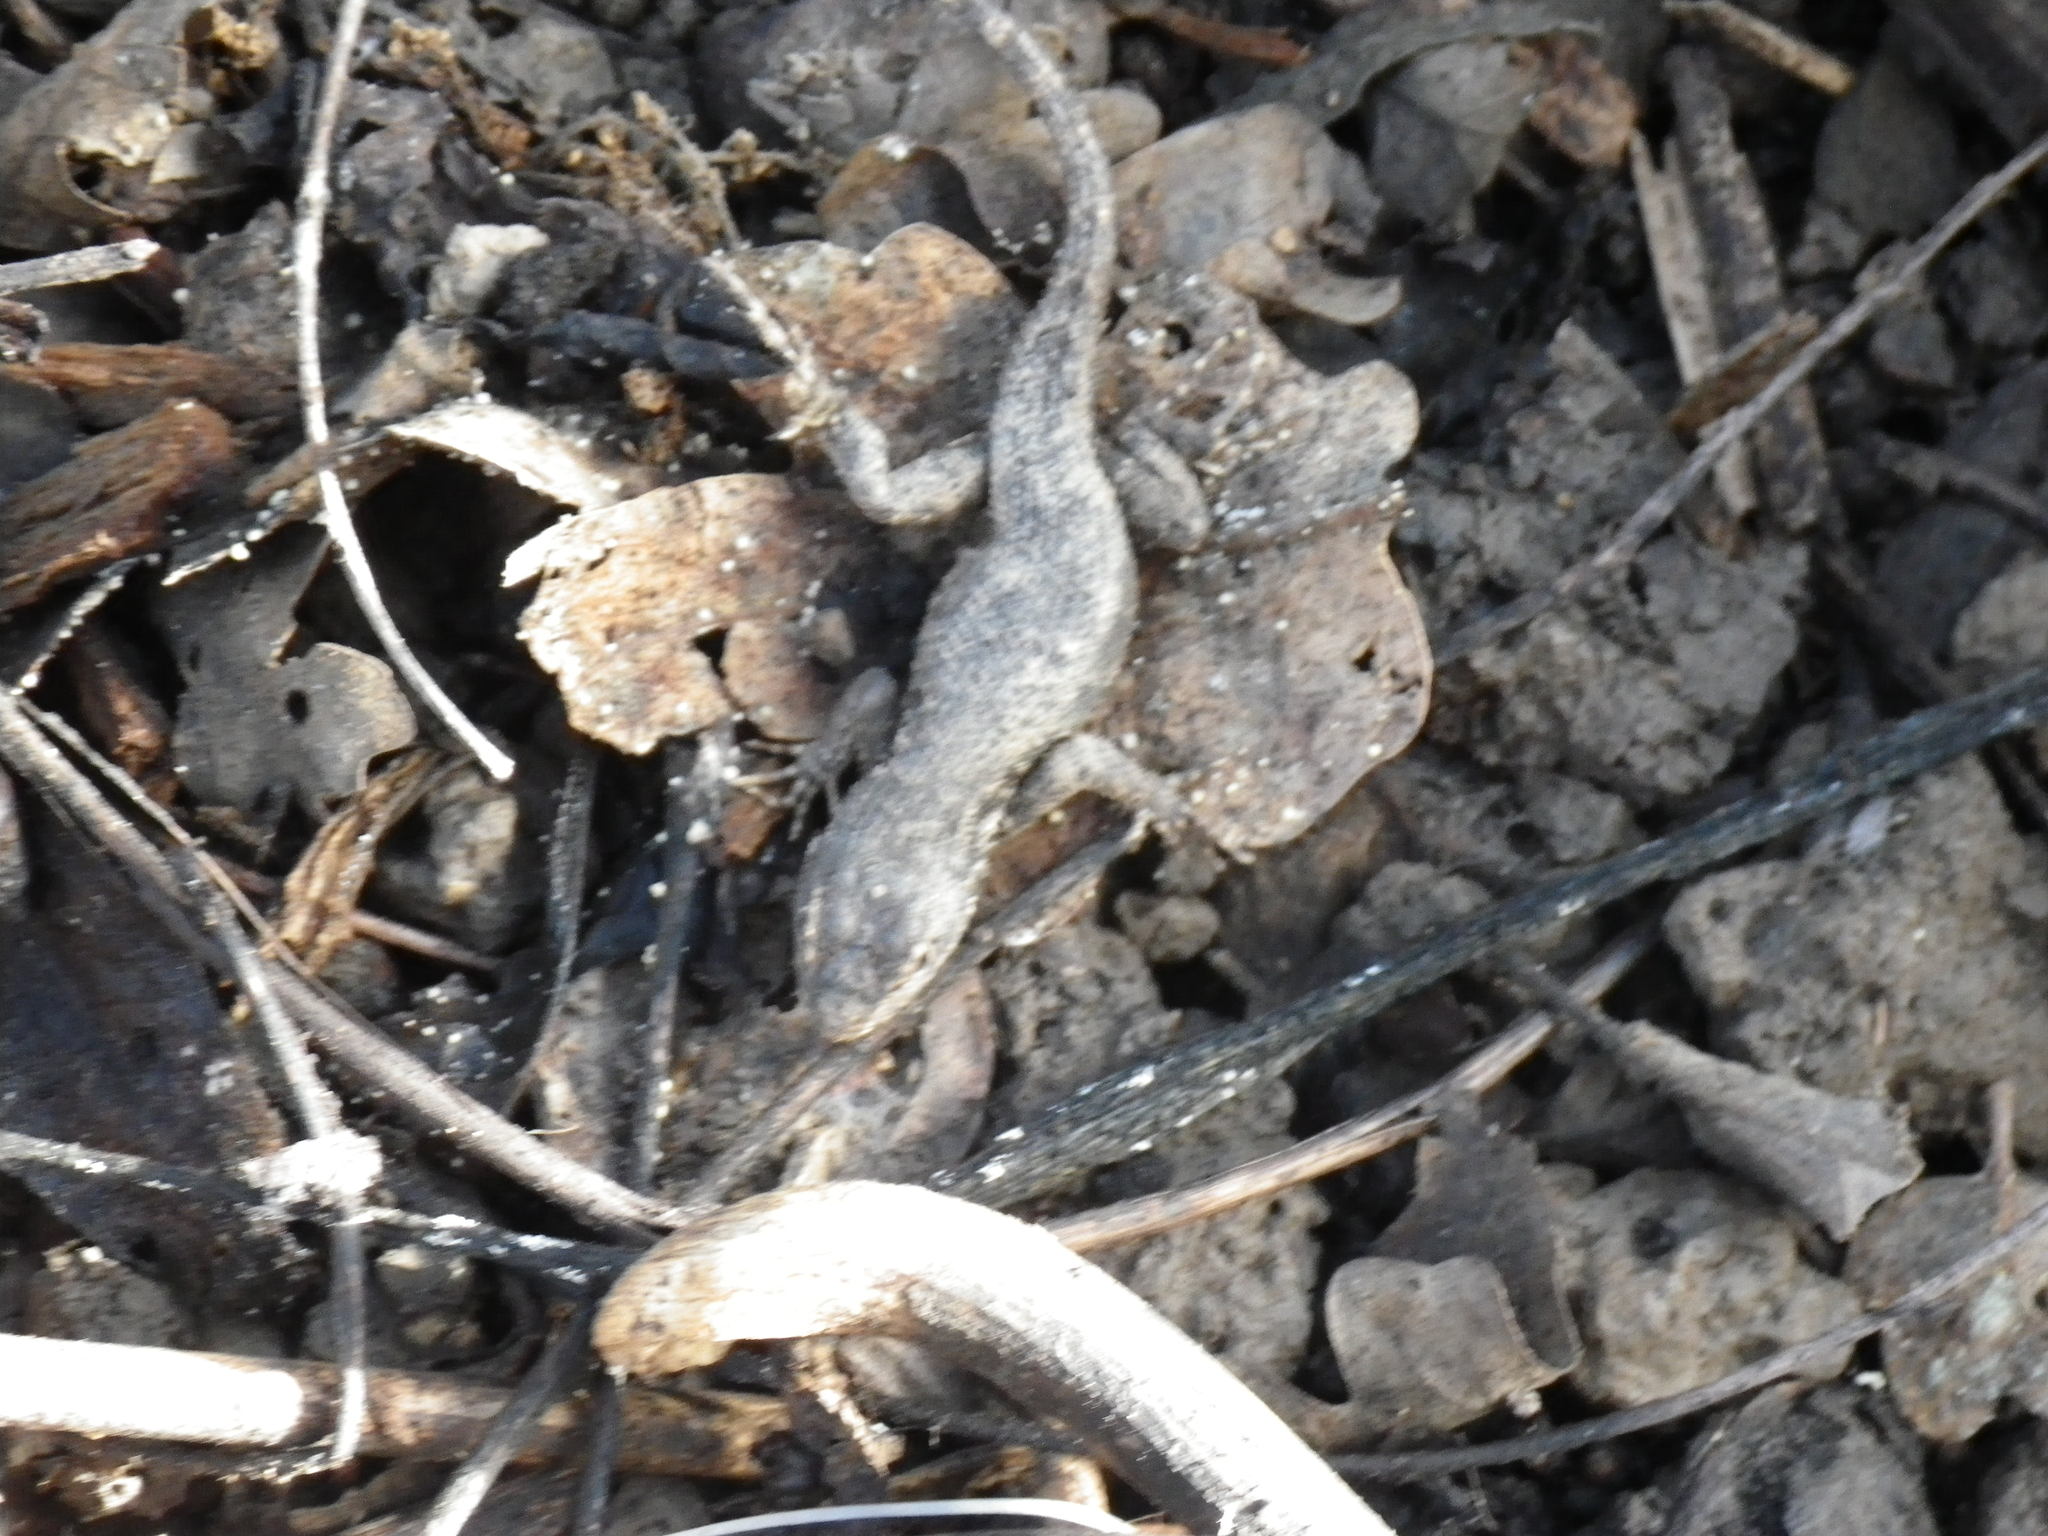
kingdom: Animalia
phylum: Chordata
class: Squamata
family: Phrynosomatidae
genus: Sceloporus
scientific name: Sceloporus occidentalis
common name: Western fence lizard
